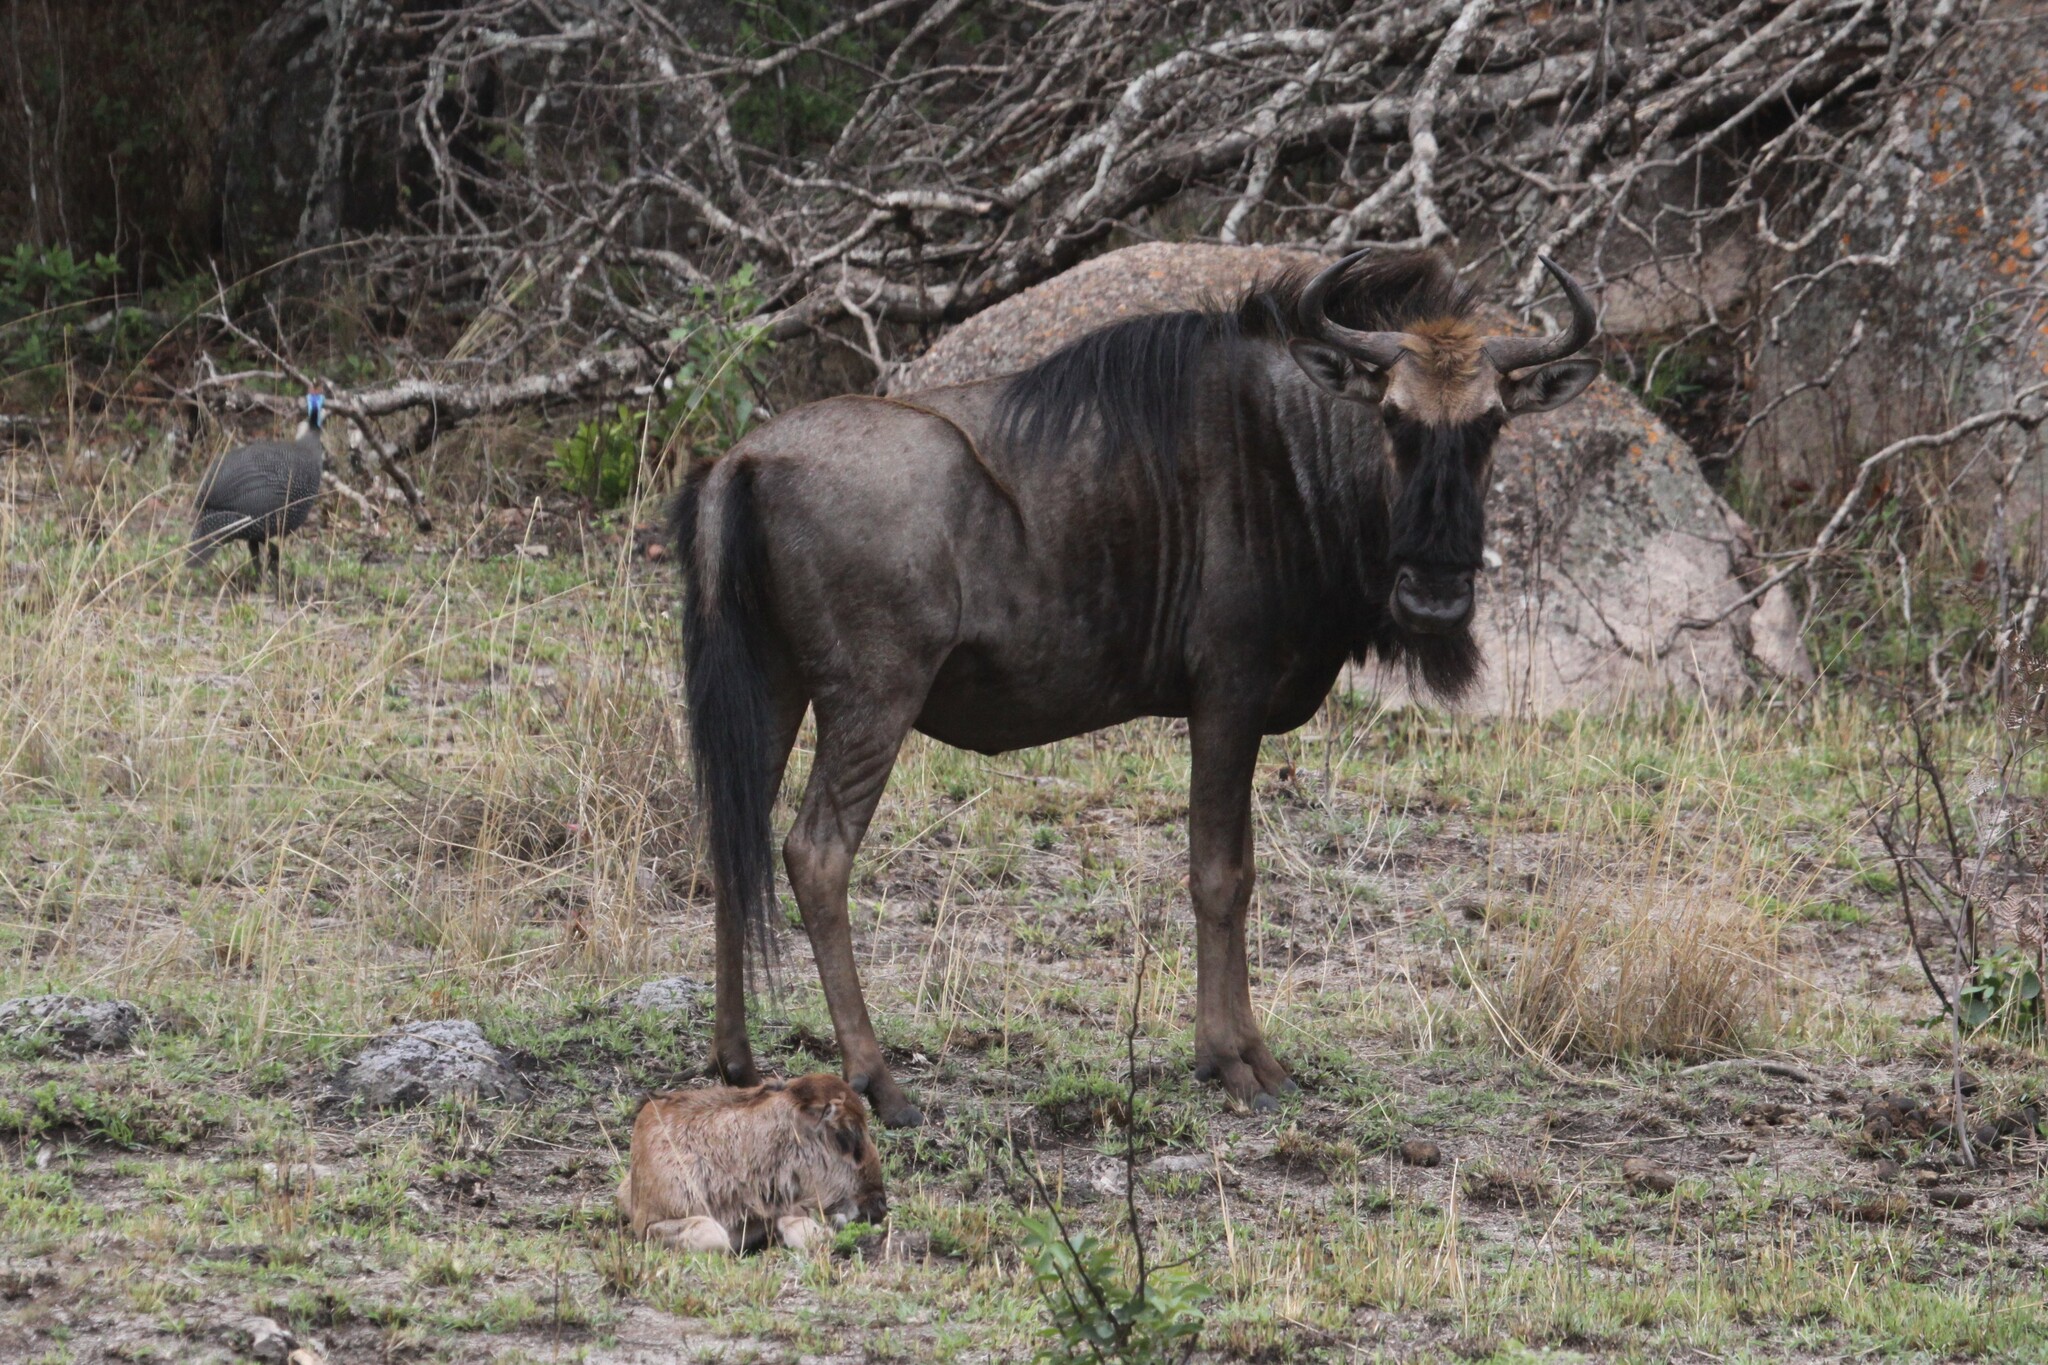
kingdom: Animalia
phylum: Chordata
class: Mammalia
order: Artiodactyla
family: Bovidae
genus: Connochaetes
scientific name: Connochaetes taurinus
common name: Blue wildebeest
